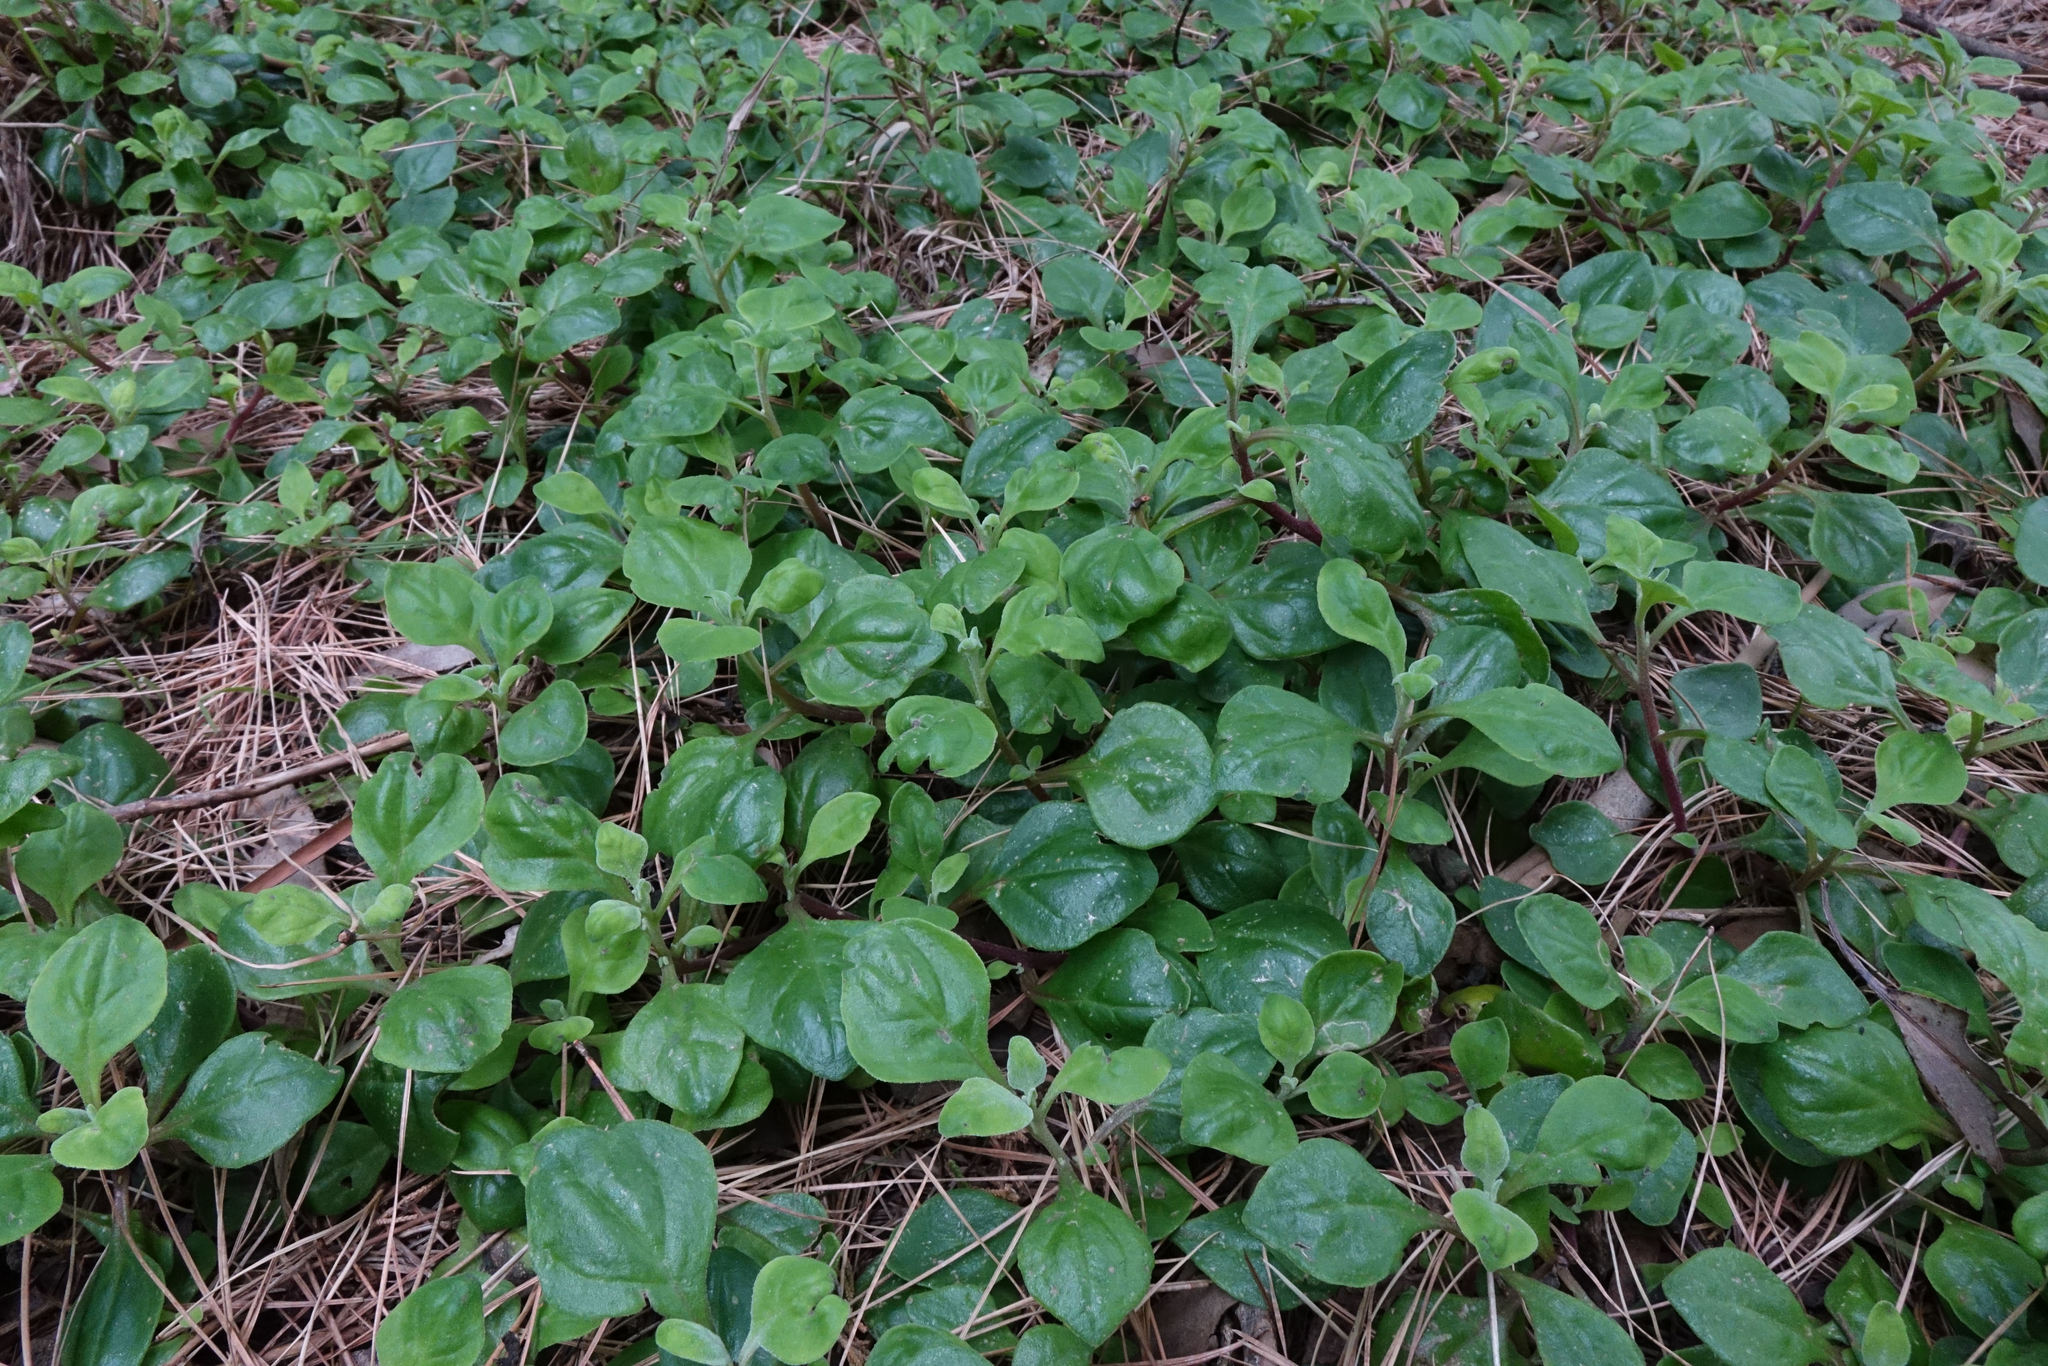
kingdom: Plantae
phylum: Tracheophyta
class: Magnoliopsida
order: Caryophyllales
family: Aizoaceae
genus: Tetragonia
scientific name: Tetragonia implexicoma
